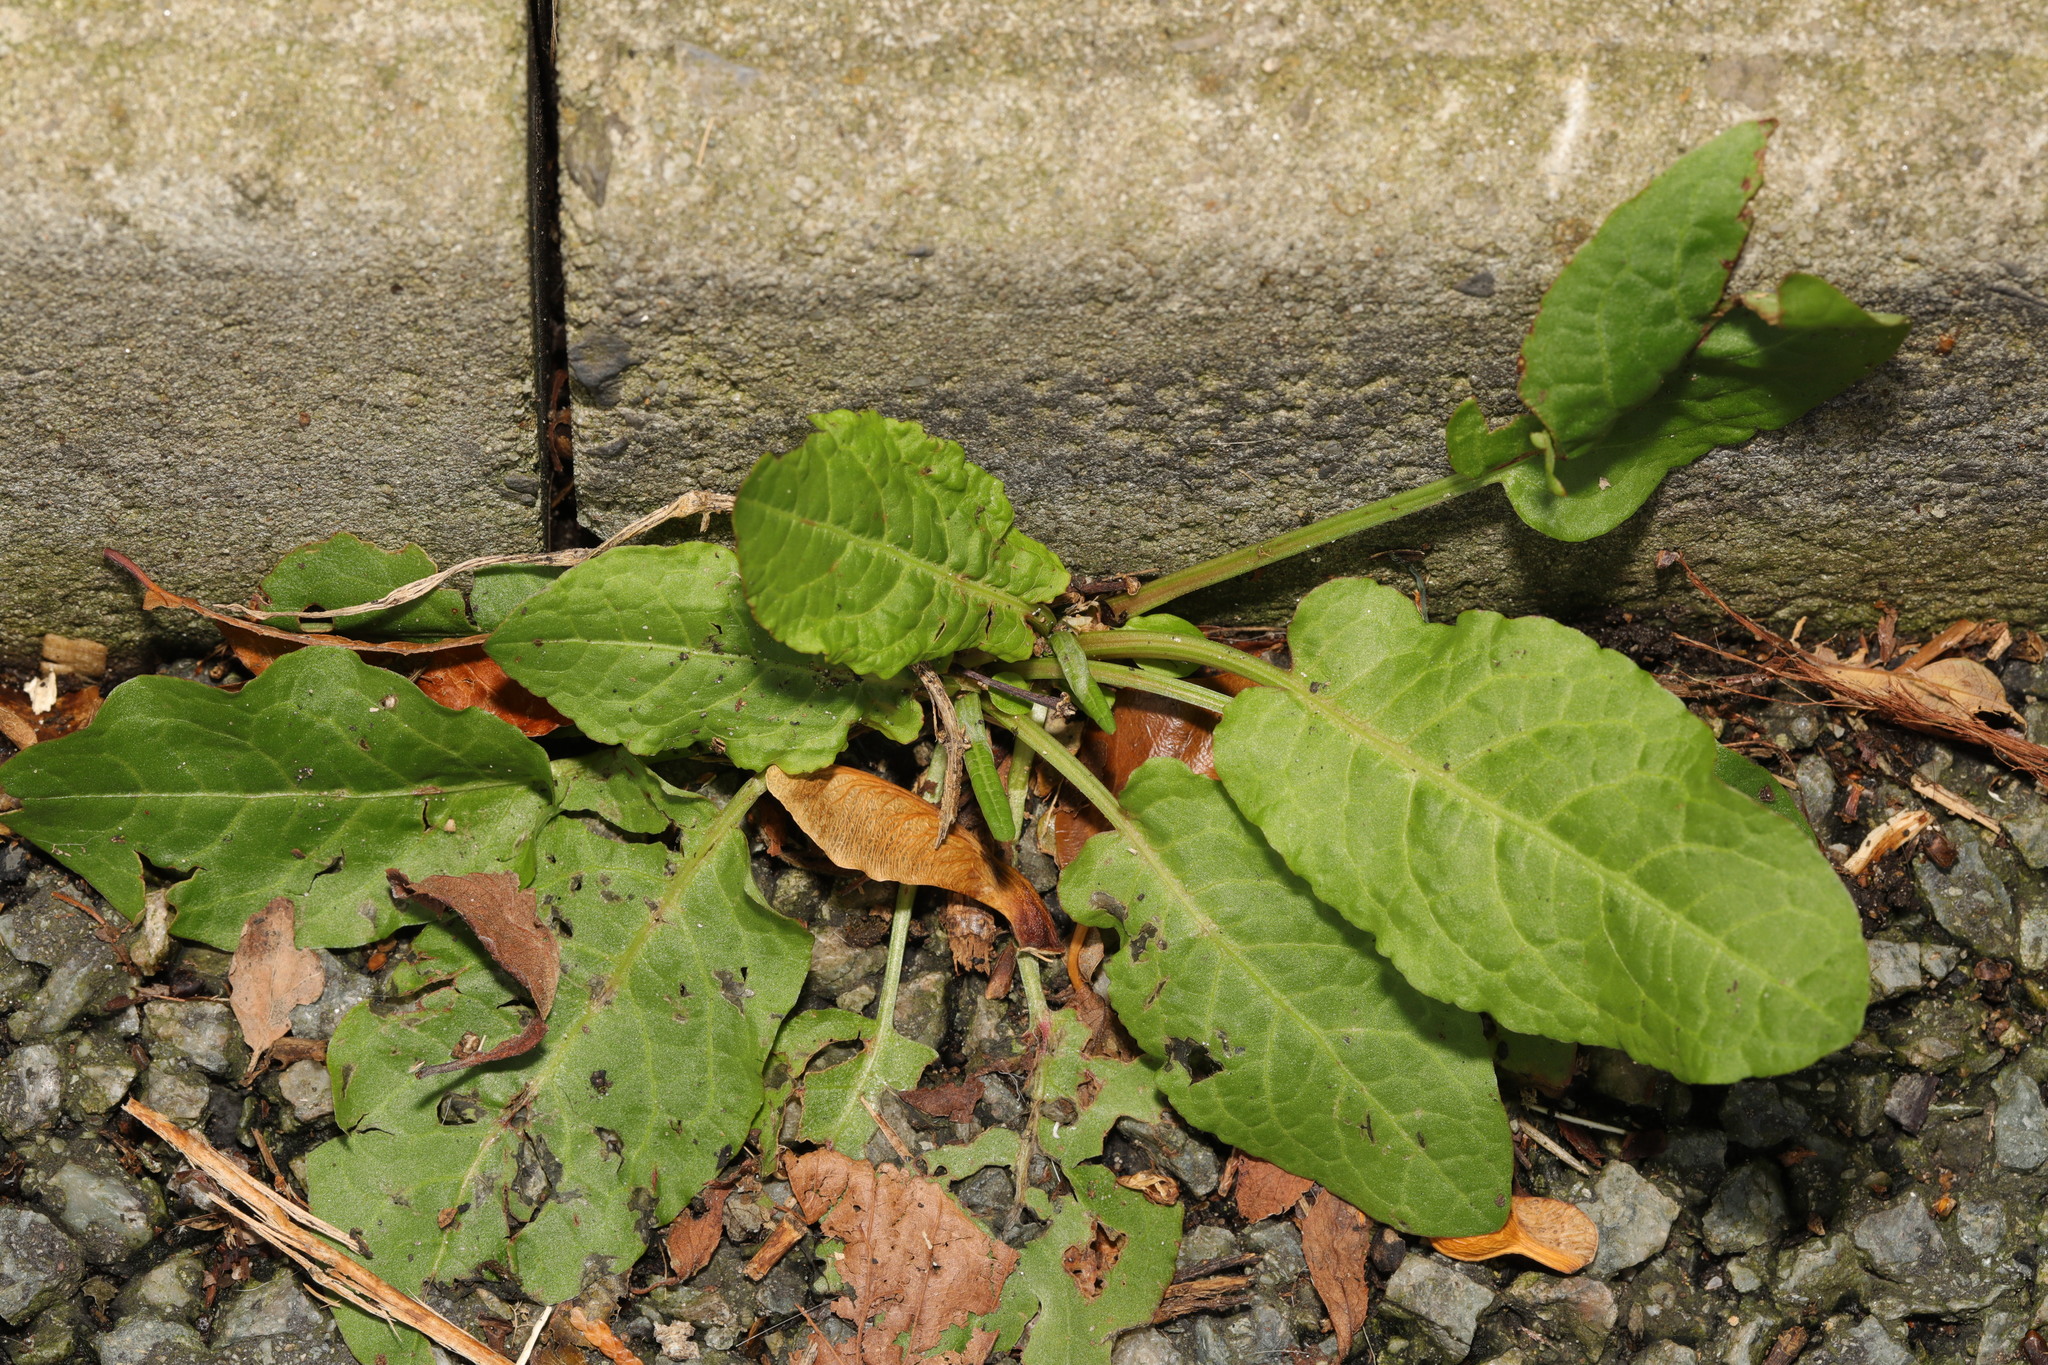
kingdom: Plantae
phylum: Tracheophyta
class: Magnoliopsida
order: Caryophyllales
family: Polygonaceae
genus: Rumex
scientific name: Rumex obtusifolius
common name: Bitter dock
